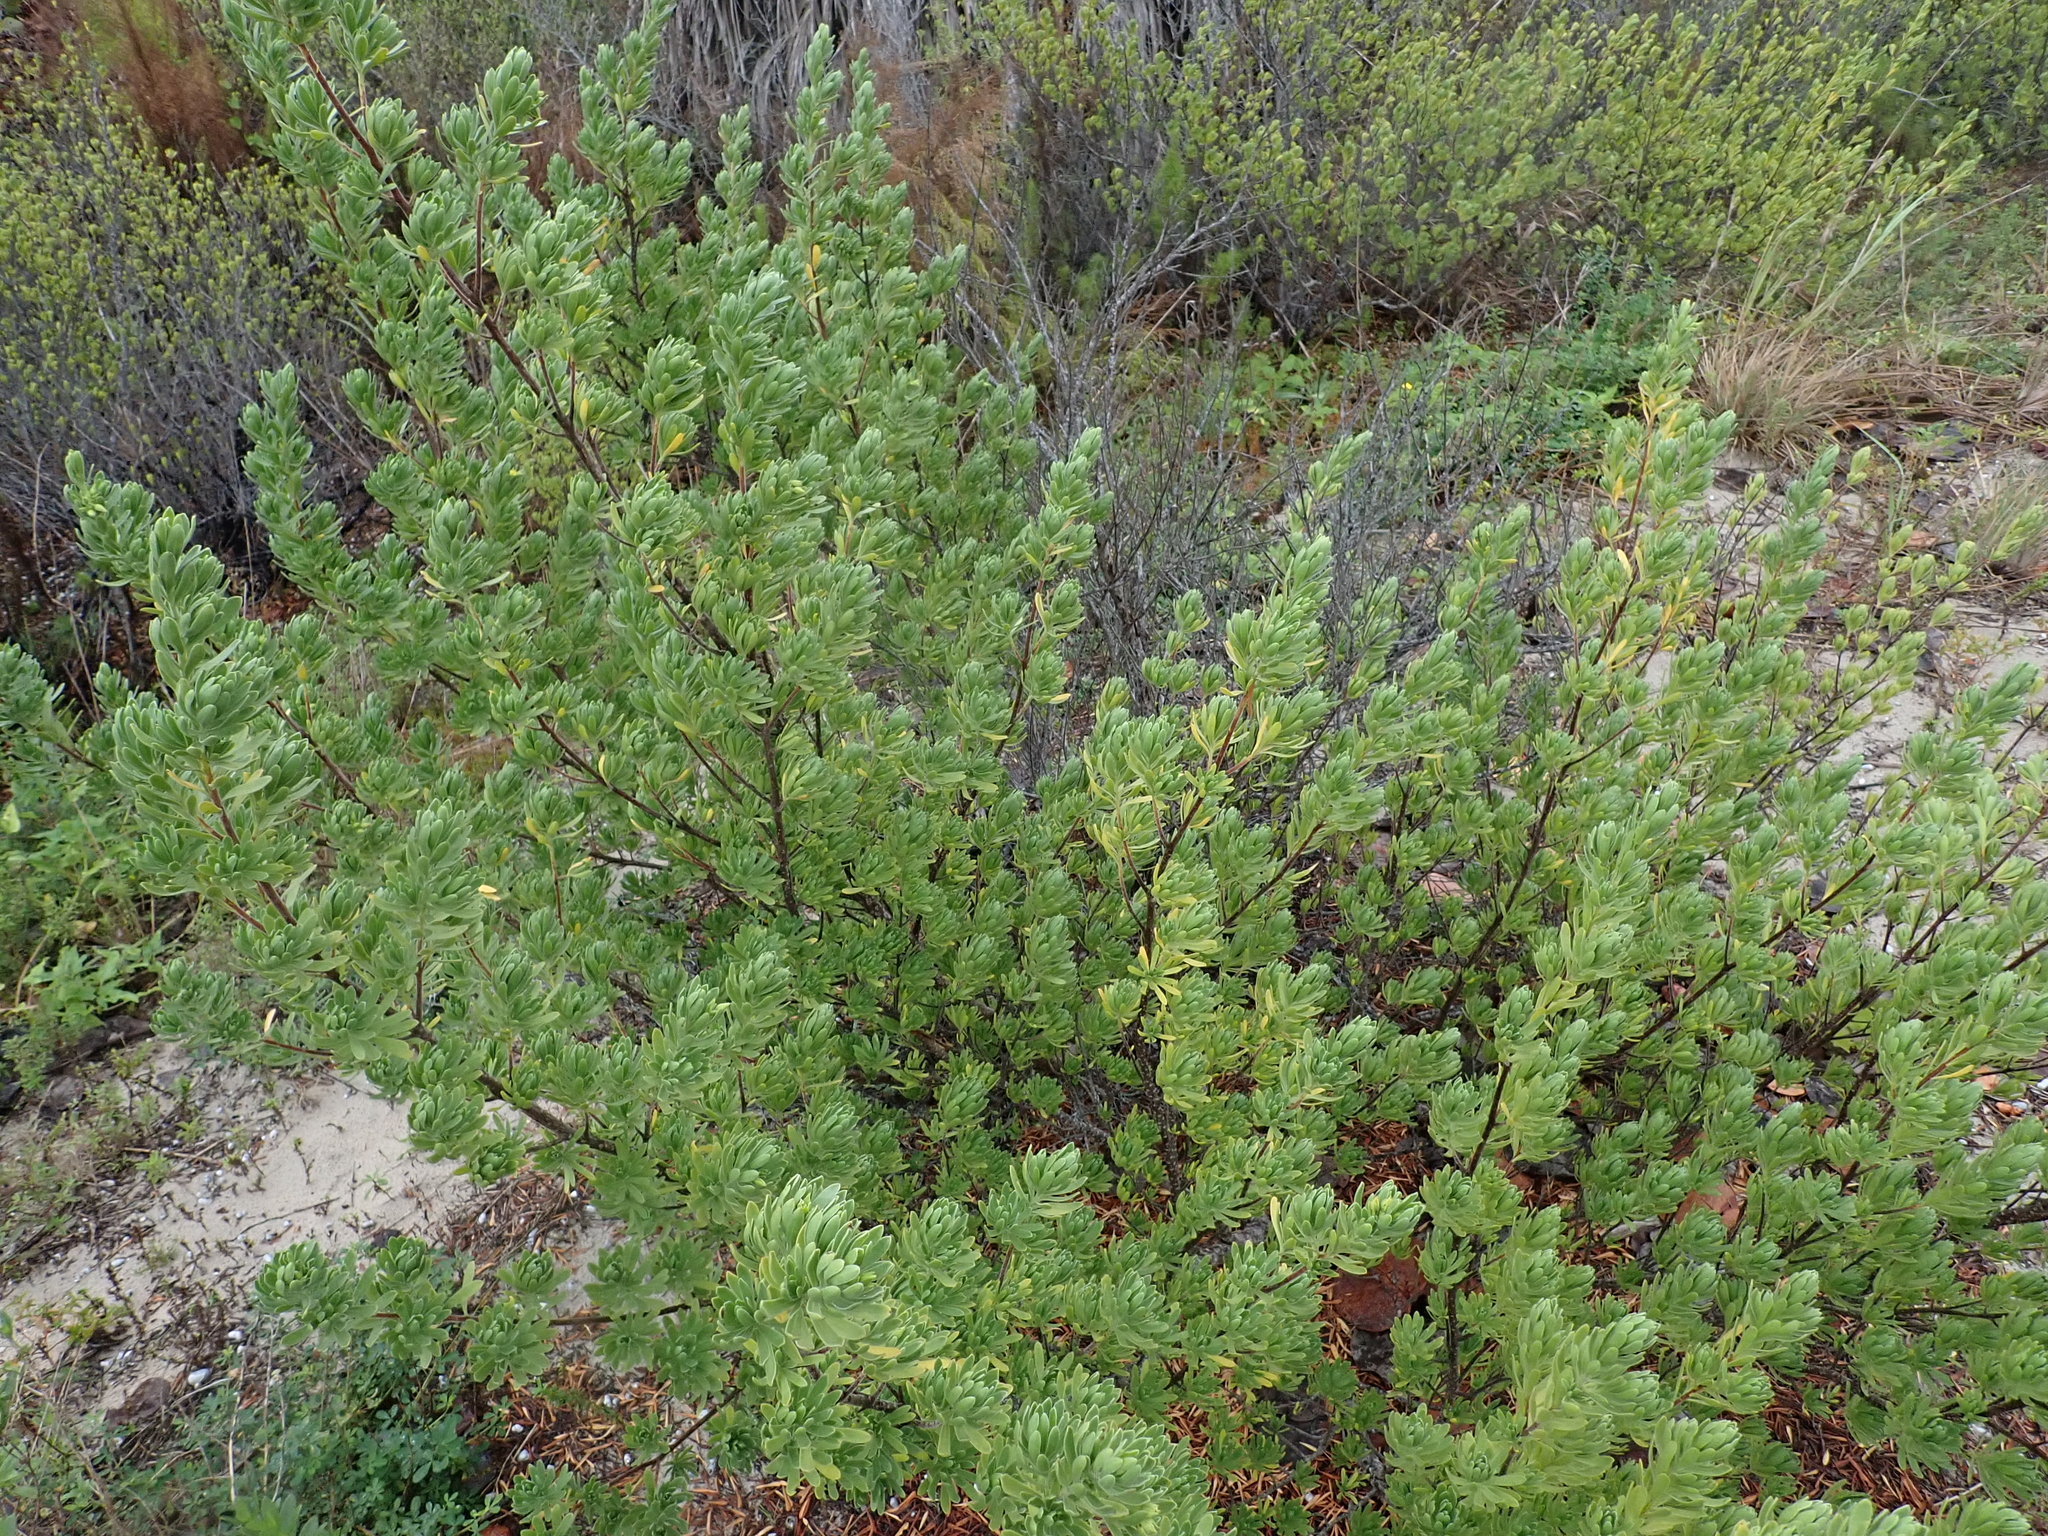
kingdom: Plantae
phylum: Tracheophyta
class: Magnoliopsida
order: Fabales
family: Surianaceae
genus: Suriana
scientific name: Suriana maritima
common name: Bay-cedar
